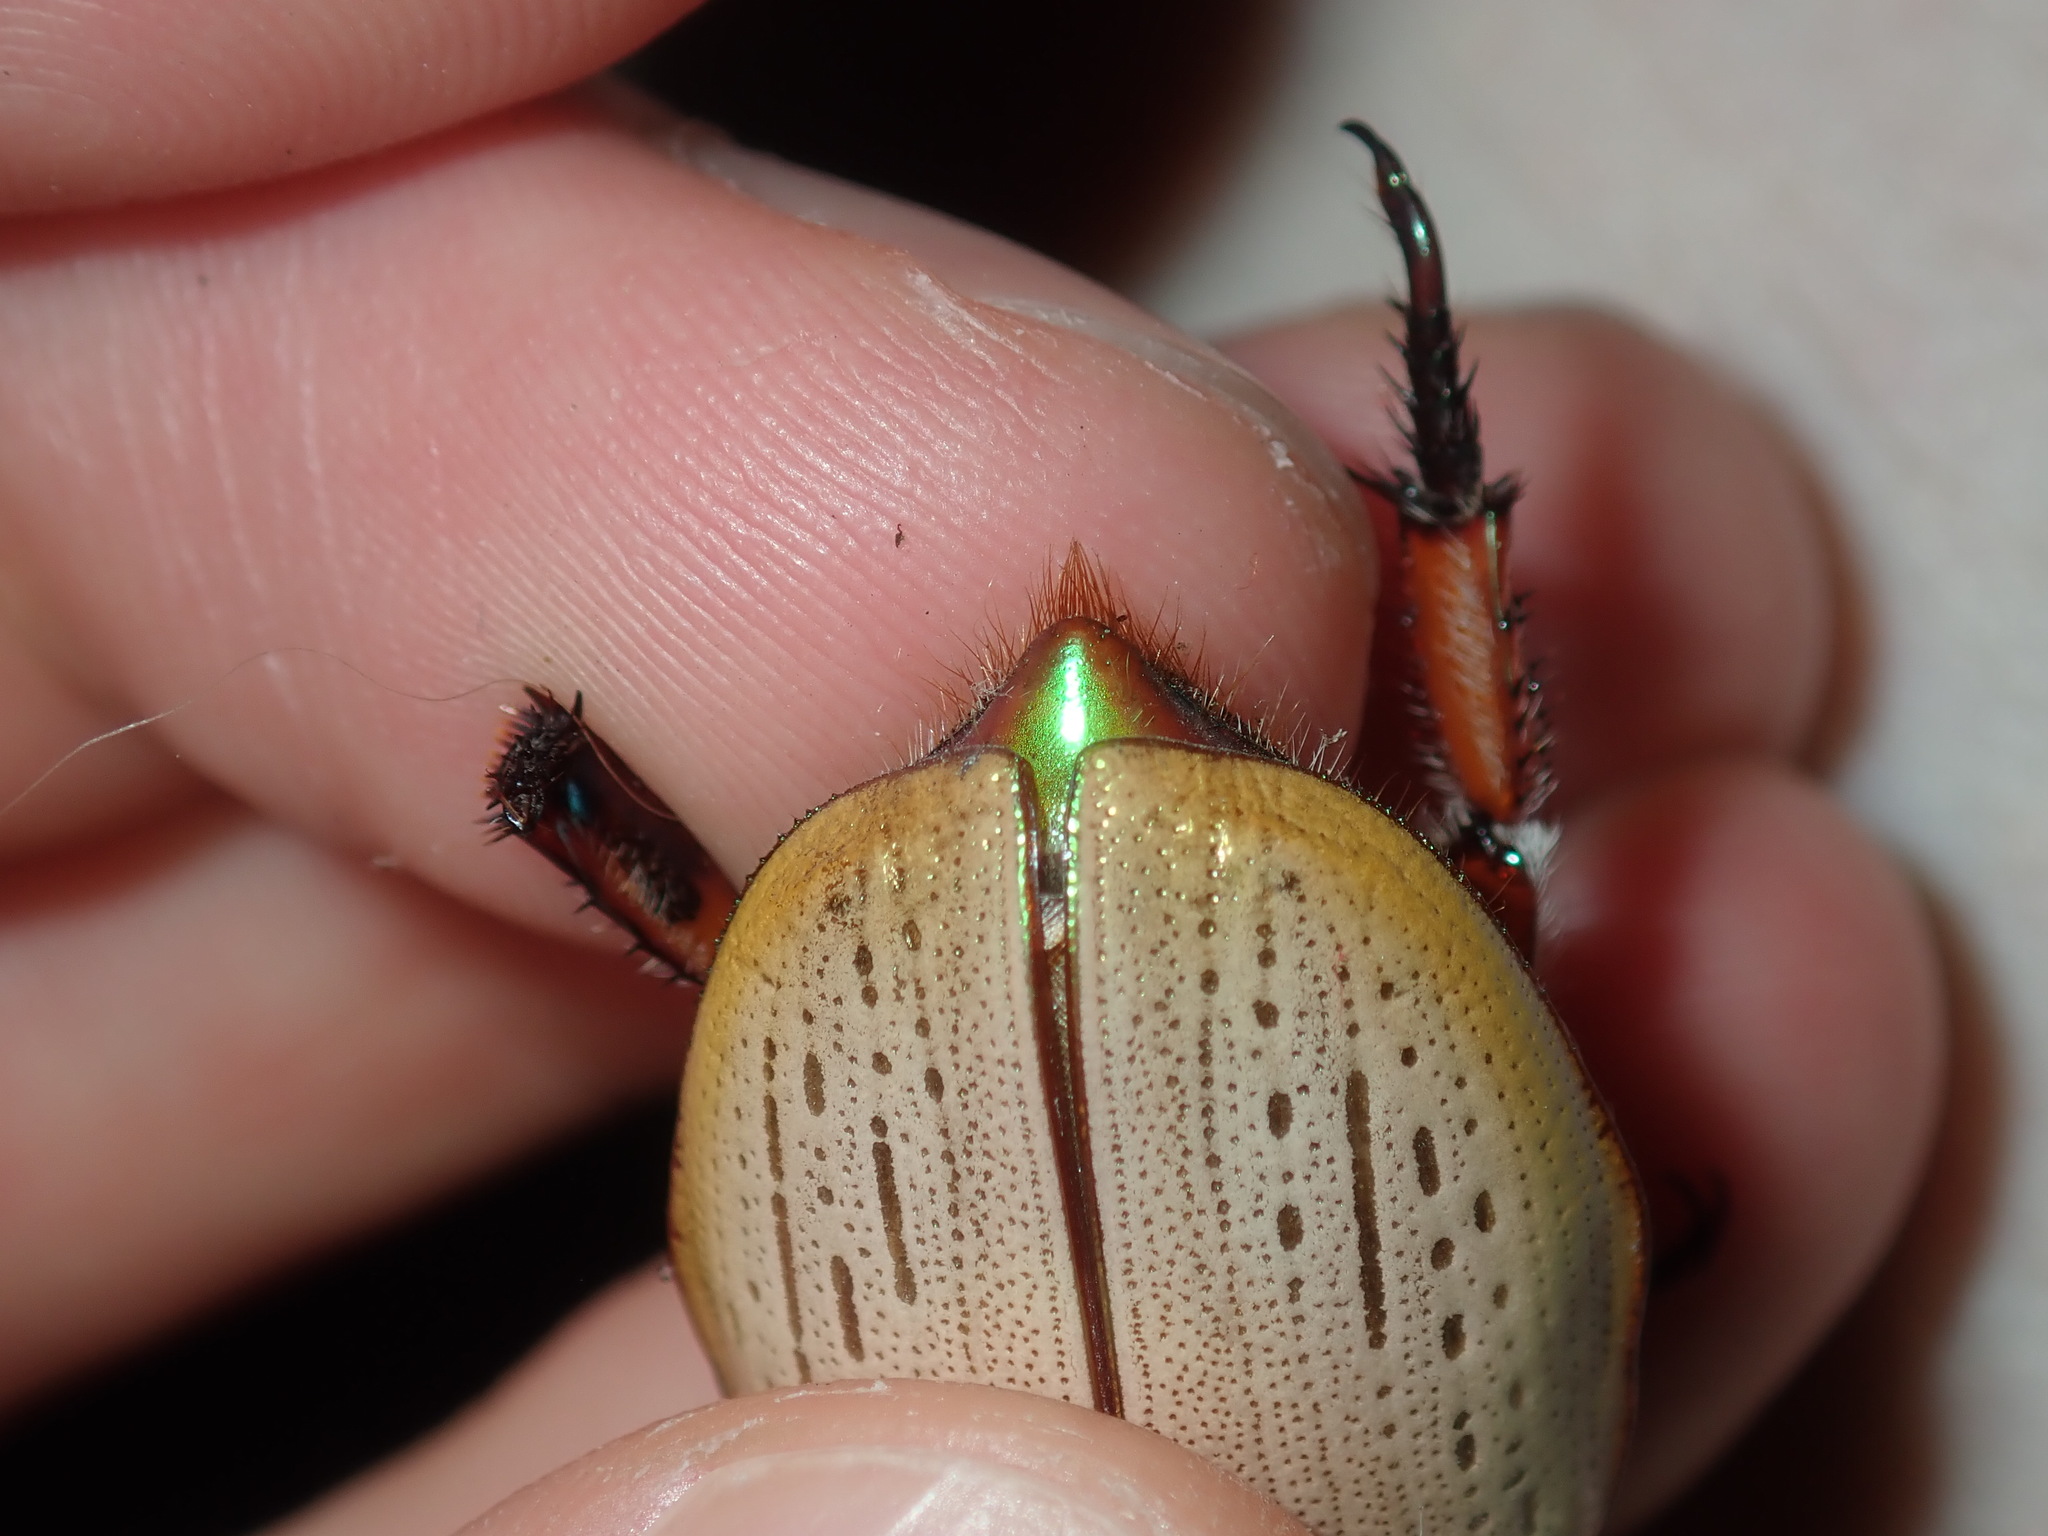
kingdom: Animalia
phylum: Arthropoda
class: Insecta
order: Coleoptera
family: Scarabaeidae
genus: Anoplognathus
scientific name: Anoplognathus olivieri
